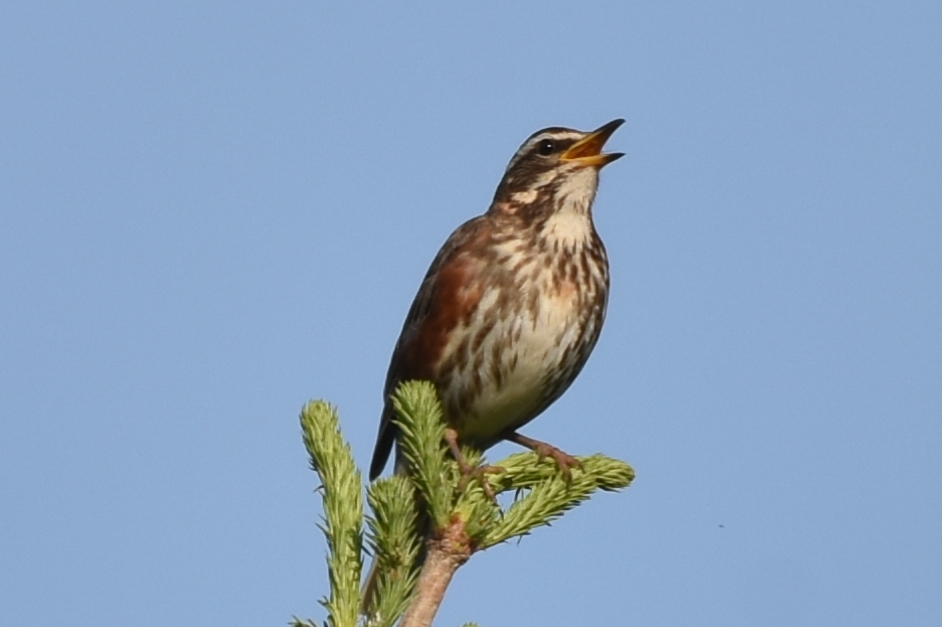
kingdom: Animalia
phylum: Chordata
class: Aves
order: Passeriformes
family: Turdidae
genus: Turdus
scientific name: Turdus iliacus
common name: Redwing
